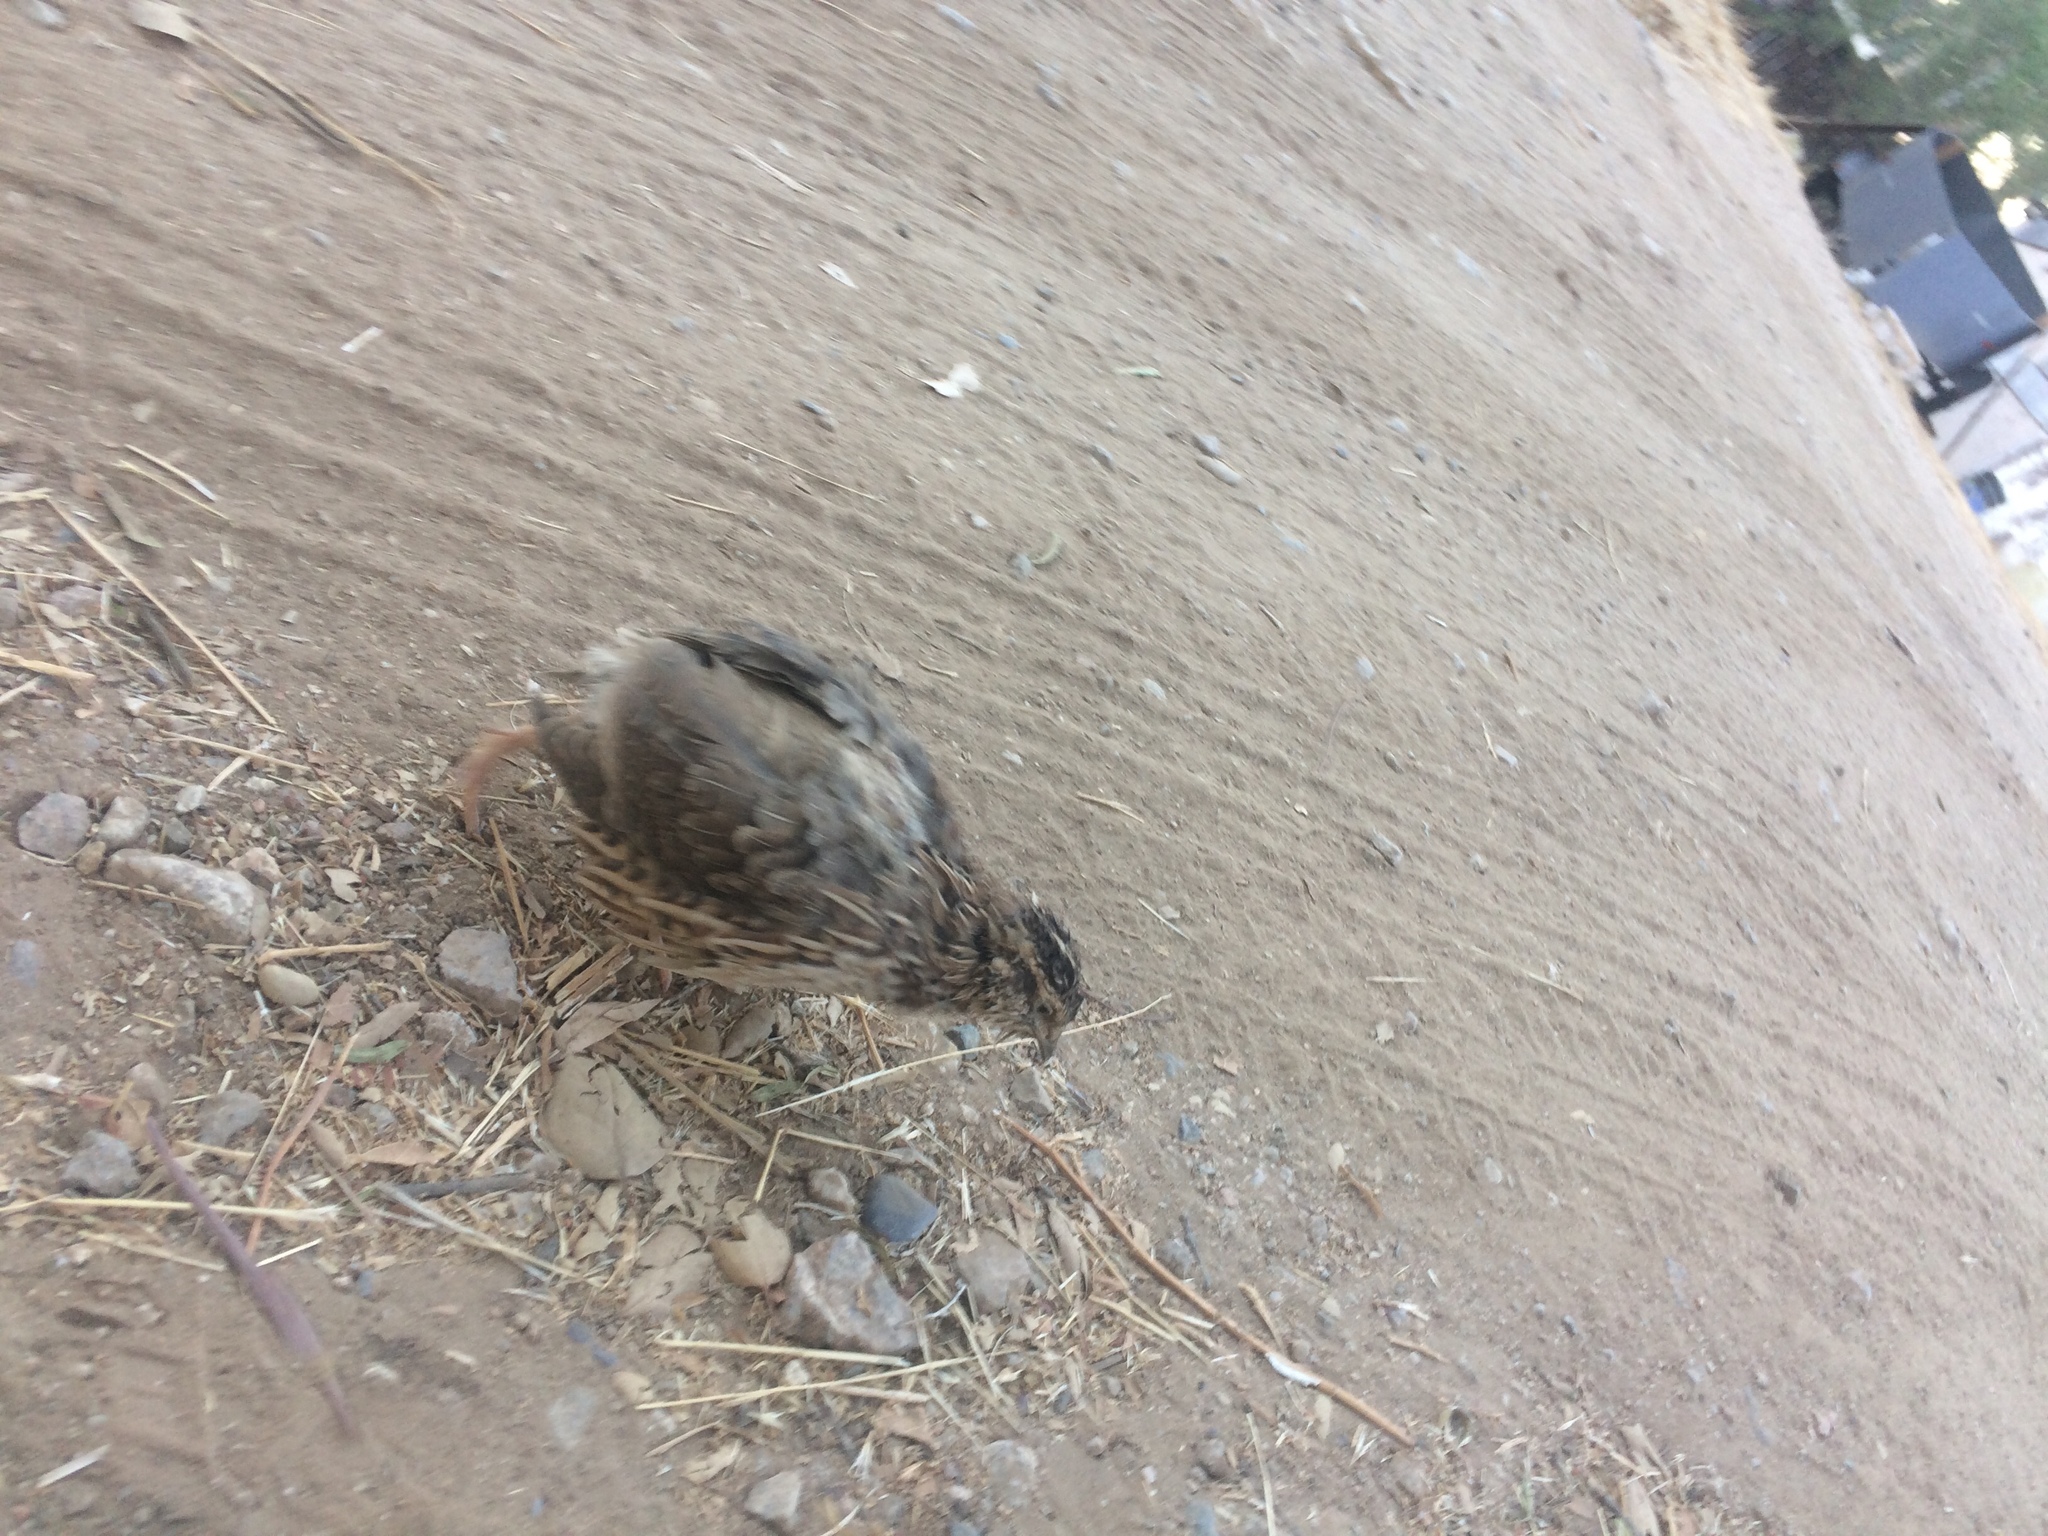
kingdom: Animalia
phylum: Chordata
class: Aves
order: Galliformes
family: Phasianidae
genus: Coturnix
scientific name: Coturnix japonica
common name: Japanese quail
